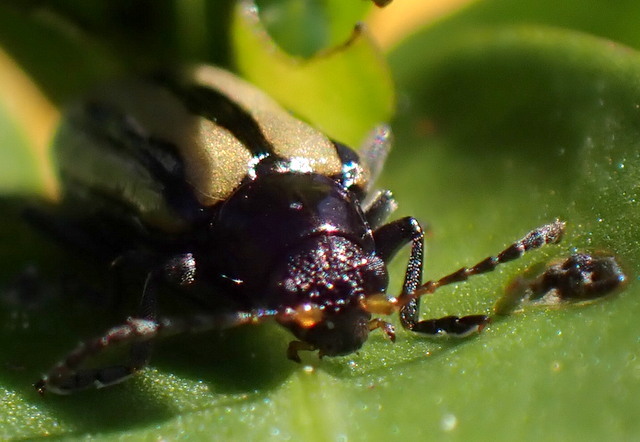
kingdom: Animalia
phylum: Arthropoda
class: Insecta
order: Coleoptera
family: Chrysomelidae
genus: Agasicles
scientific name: Agasicles hygrophila
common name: Alligatorweed flea beetle
